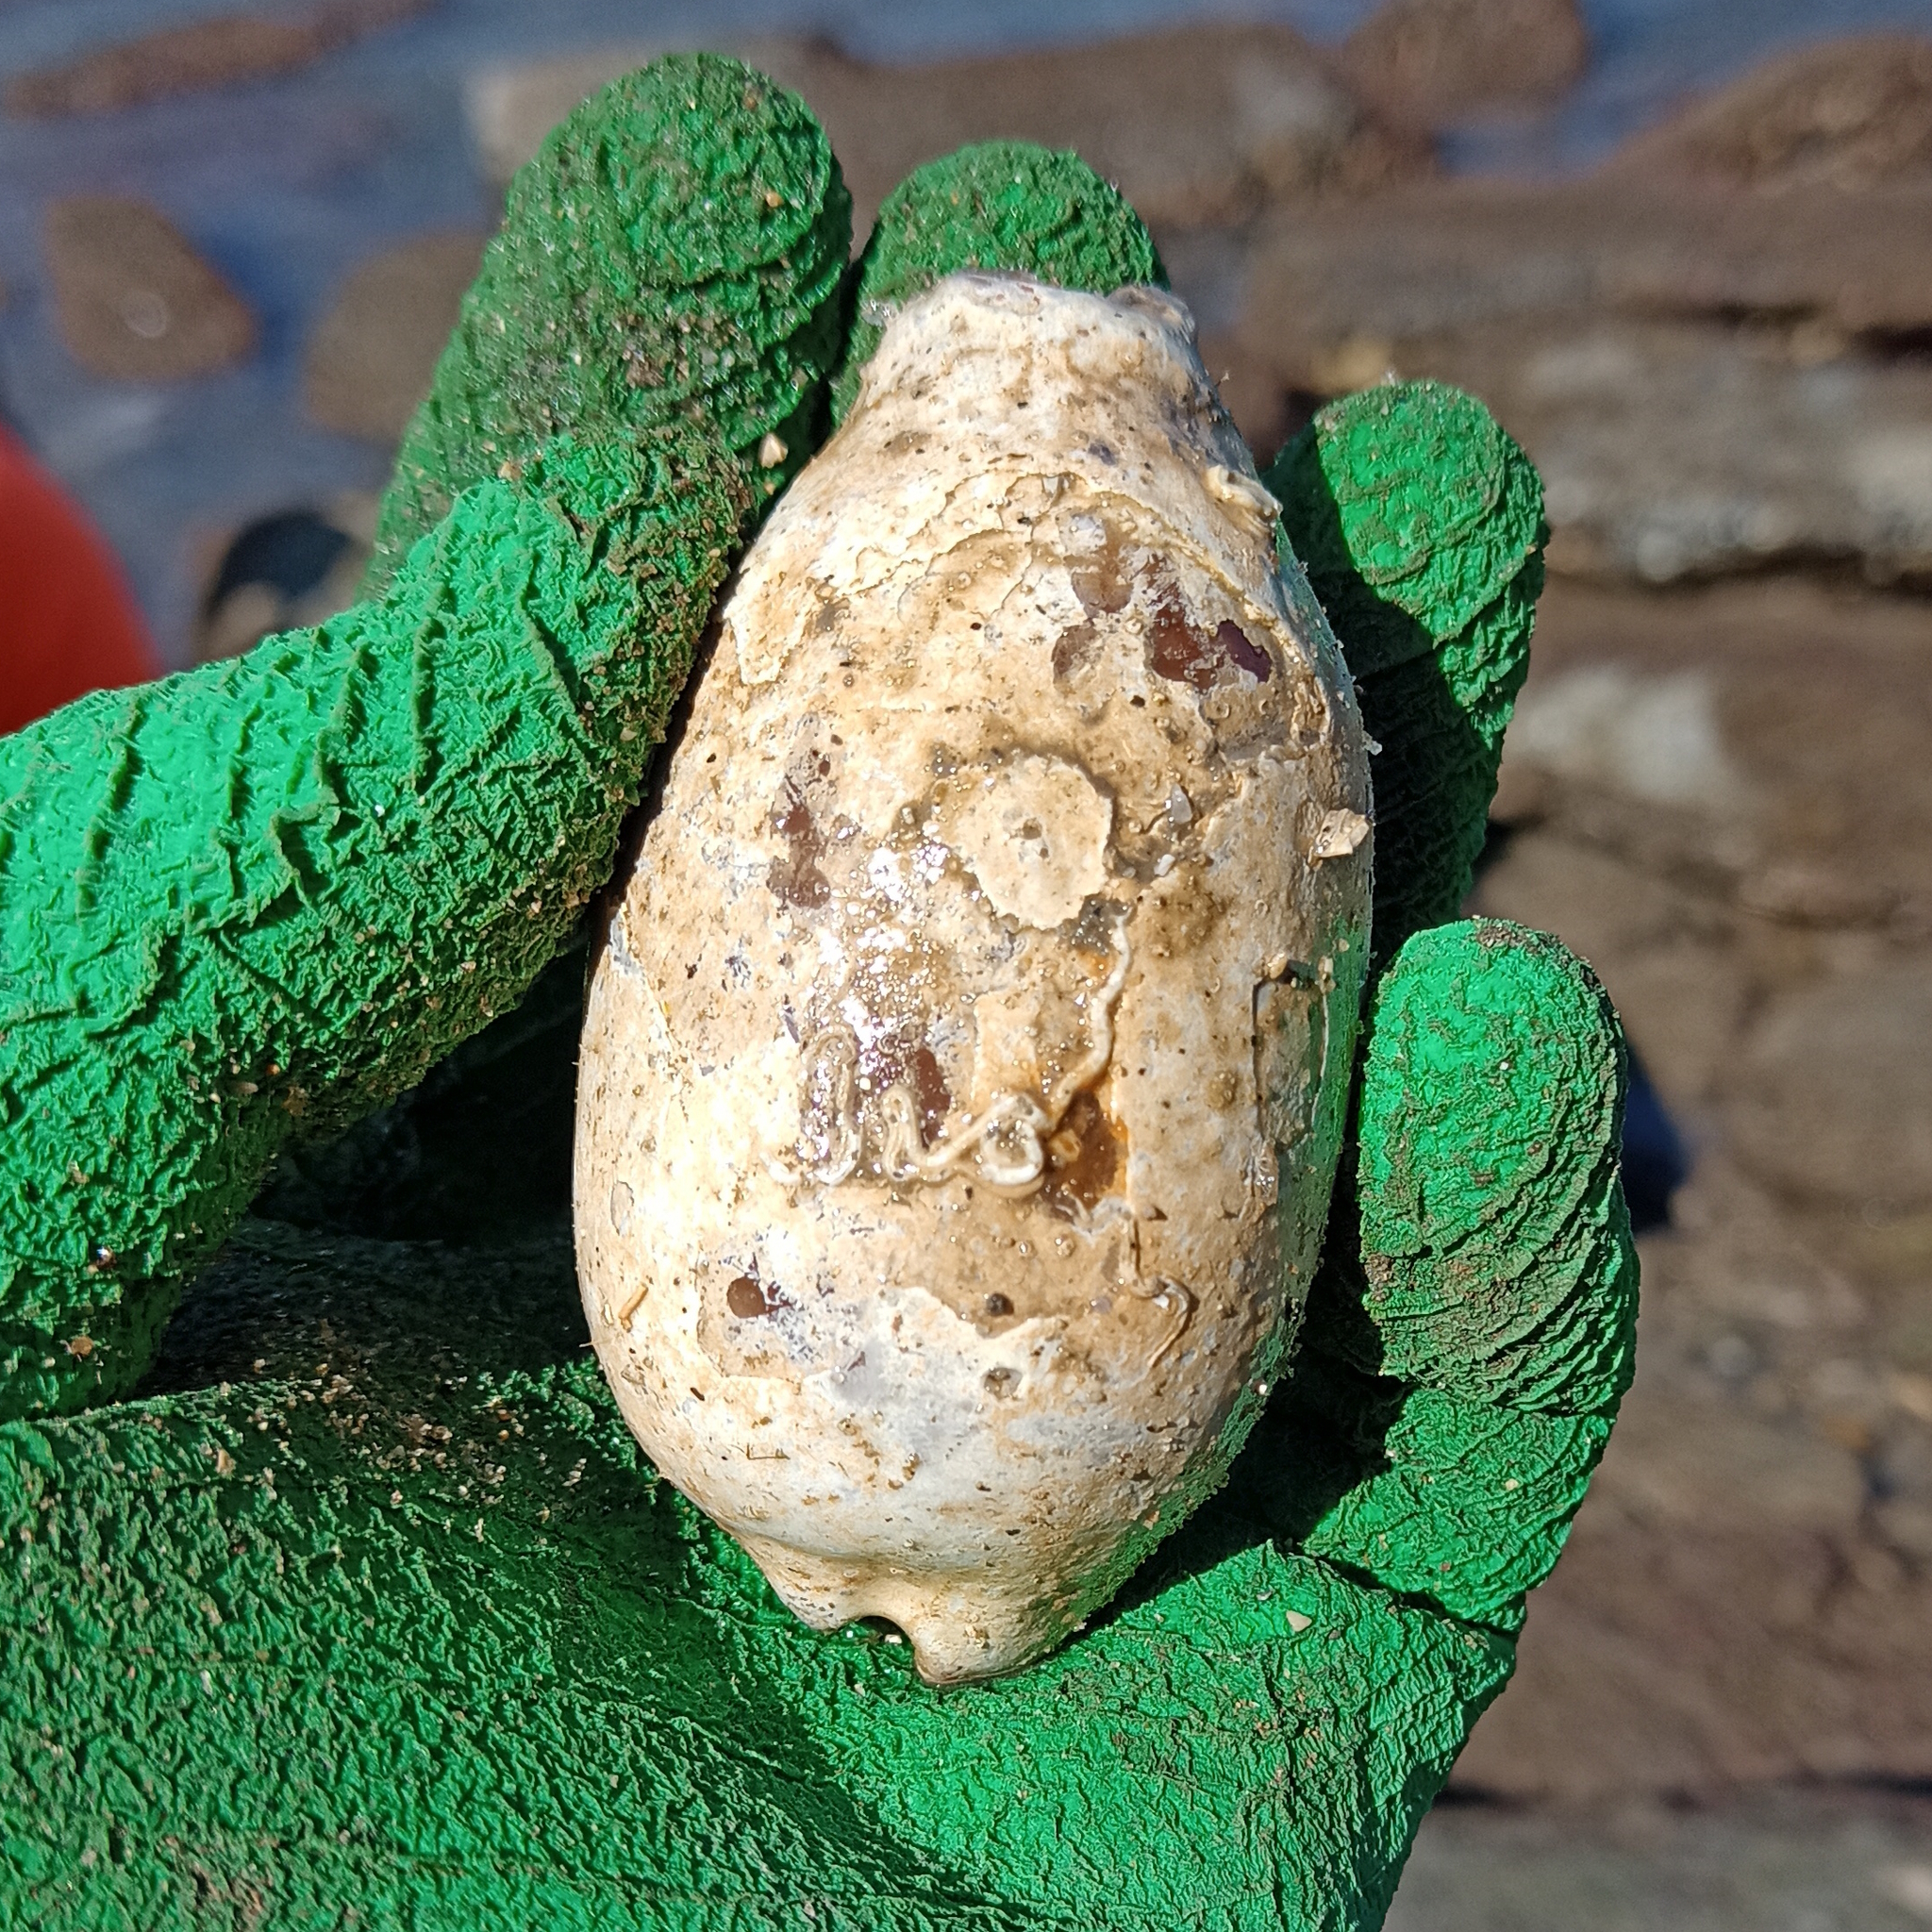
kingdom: Animalia
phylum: Mollusca
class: Gastropoda
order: Littorinimorpha
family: Cypraeidae
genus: Macrocypraea
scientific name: Macrocypraea zebra
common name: Measled cowrie
